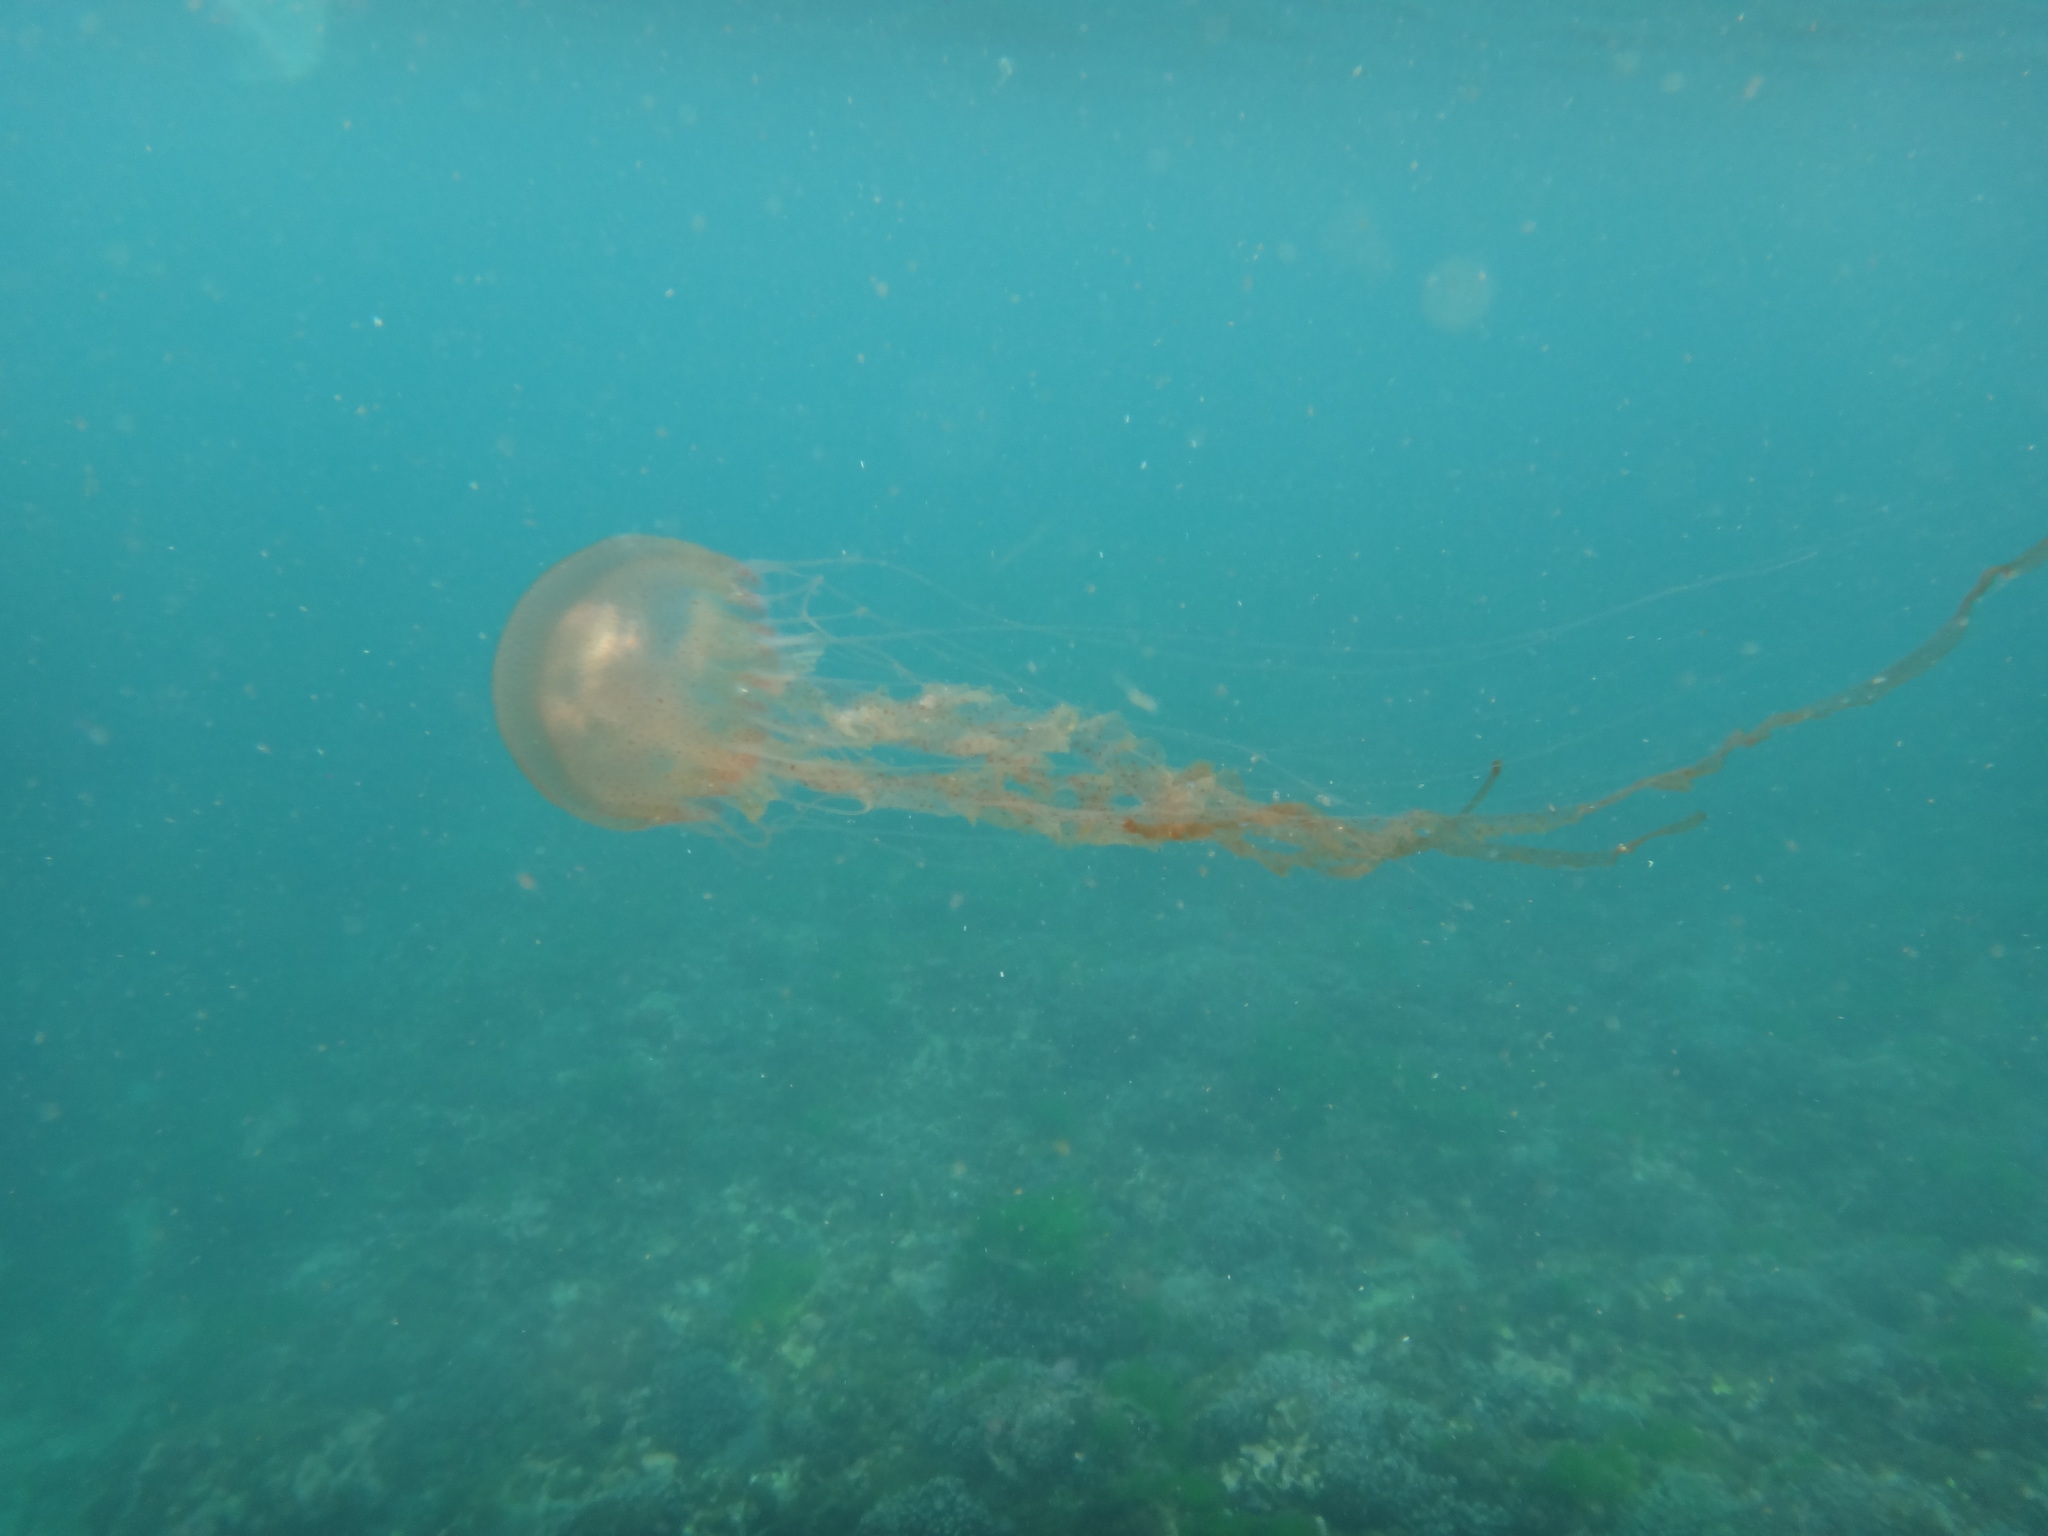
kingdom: Animalia
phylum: Cnidaria
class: Scyphozoa
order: Semaeostomeae
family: Pelagiidae
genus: Chrysaora
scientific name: Chrysaora chinensis
